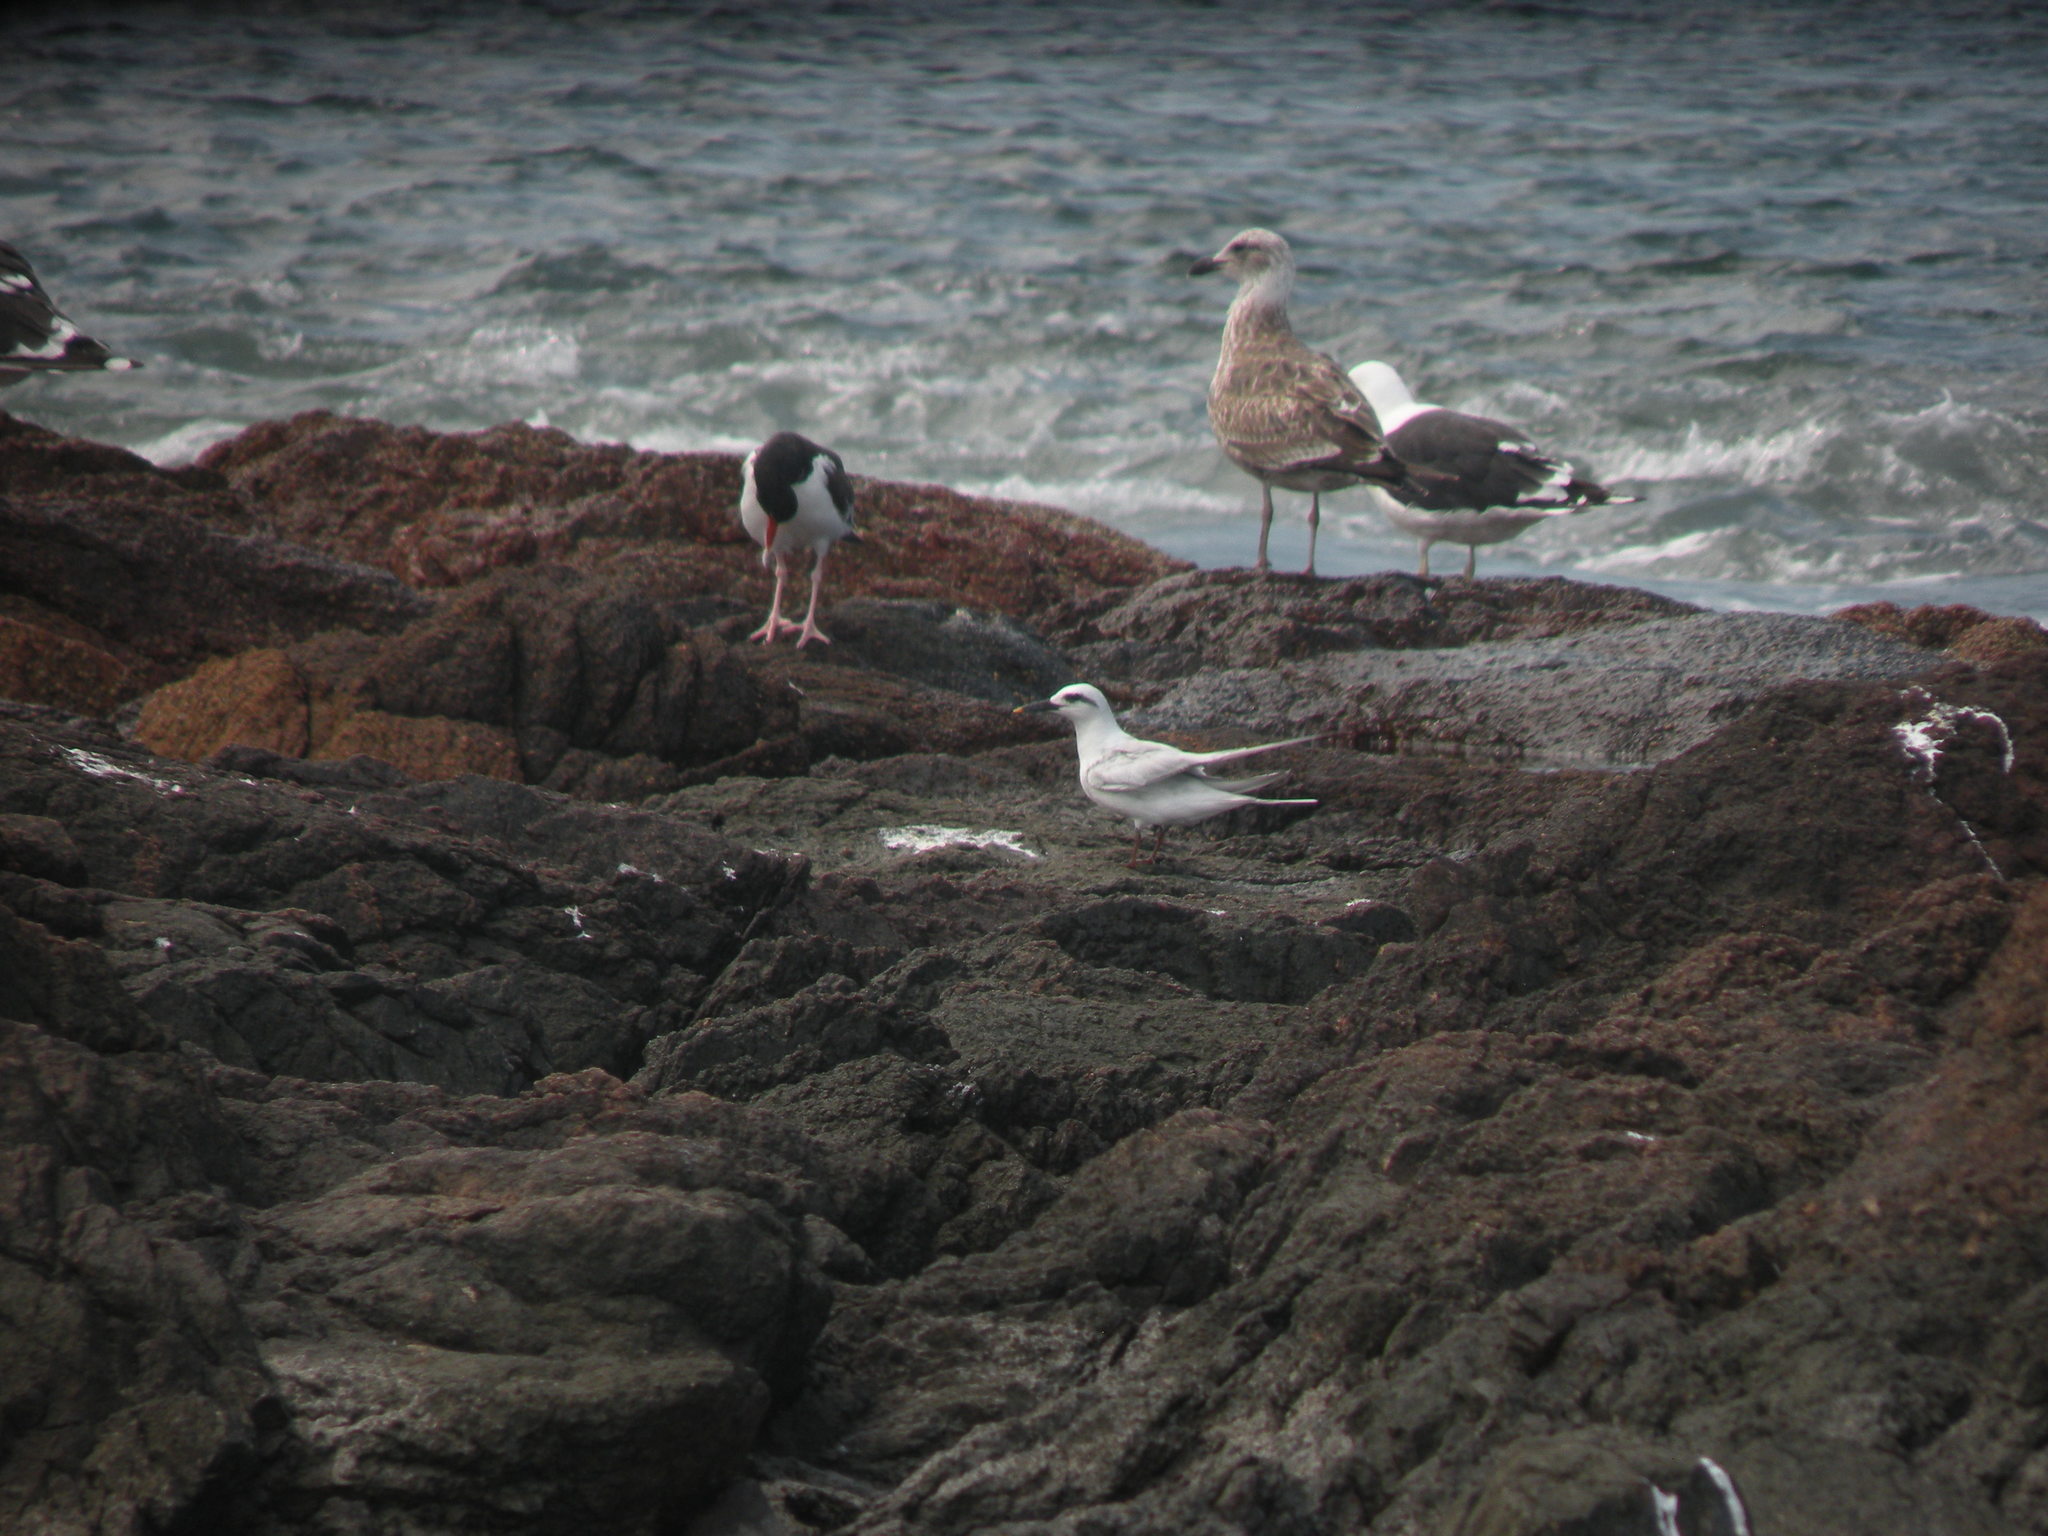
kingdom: Animalia
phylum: Chordata
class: Aves
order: Charadriiformes
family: Laridae
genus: Sterna
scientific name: Sterna trudeaui
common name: Snowy-crowned tern
